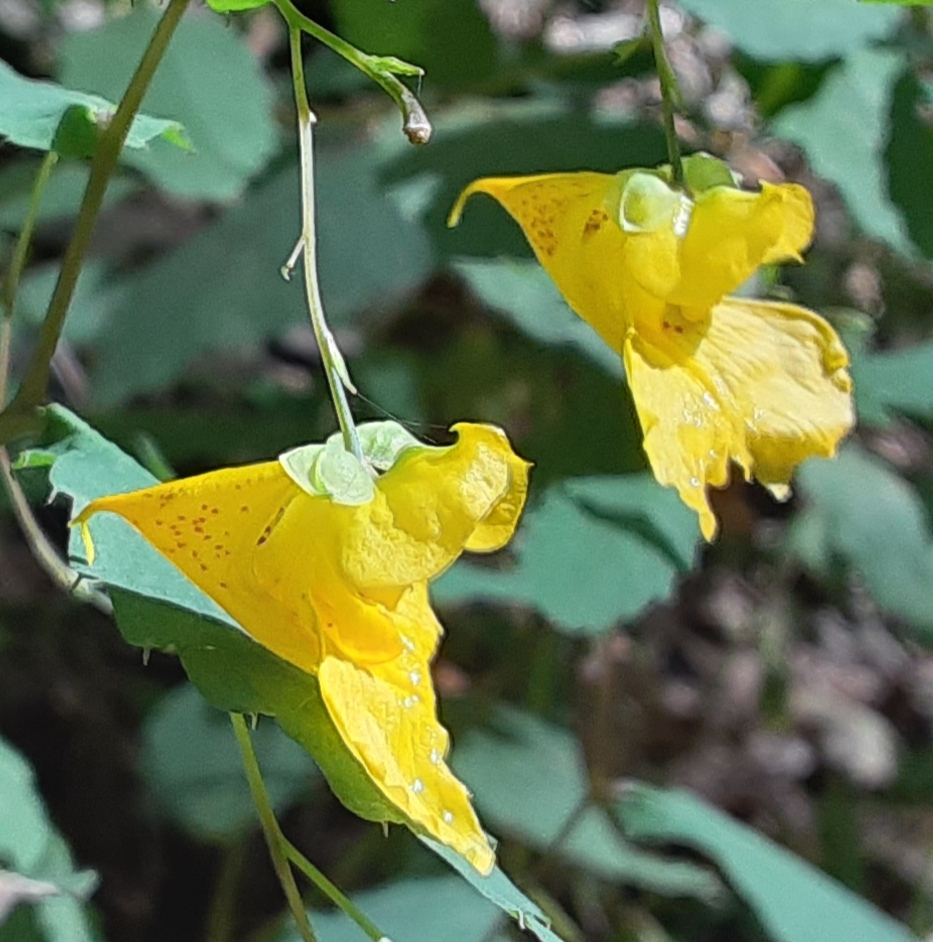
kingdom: Plantae
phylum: Tracheophyta
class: Magnoliopsida
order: Ericales
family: Balsaminaceae
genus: Impatiens
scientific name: Impatiens pallida
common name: Pale snapweed
